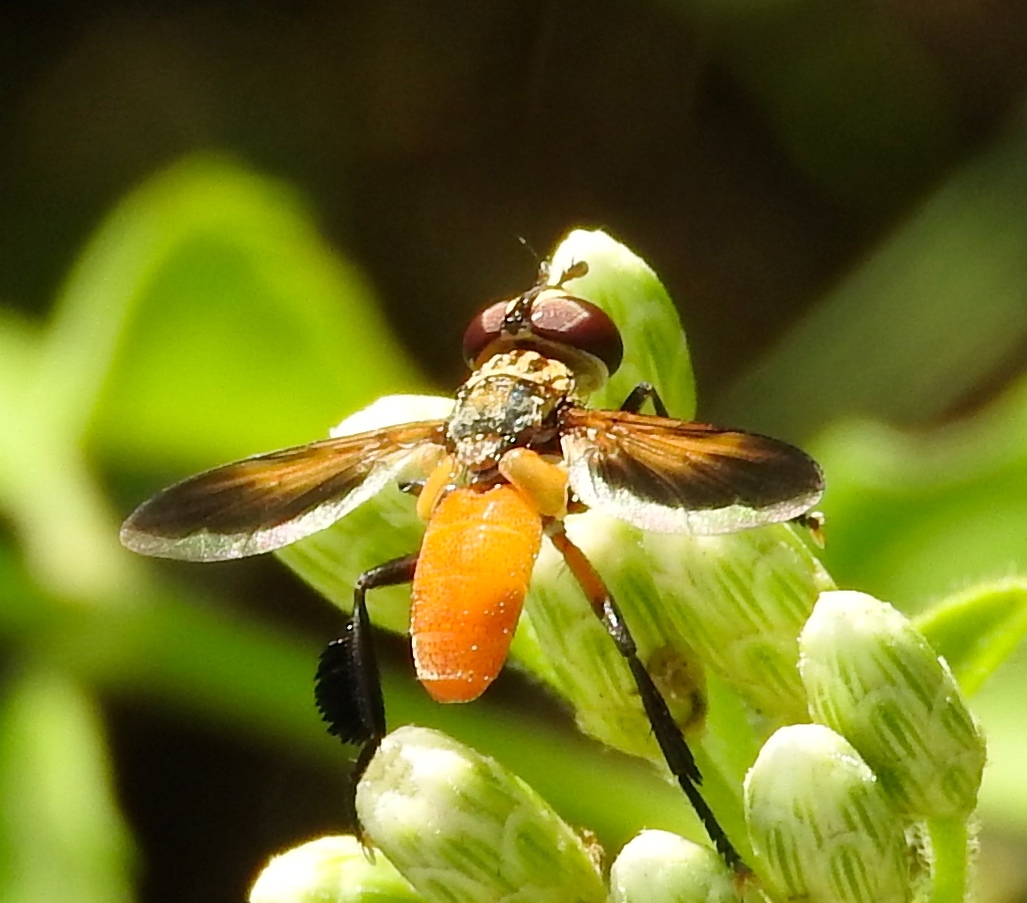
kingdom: Animalia
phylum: Arthropoda
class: Insecta
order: Diptera
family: Tachinidae
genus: Trichopoda
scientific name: Trichopoda pennipes
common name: Tachinid fly
